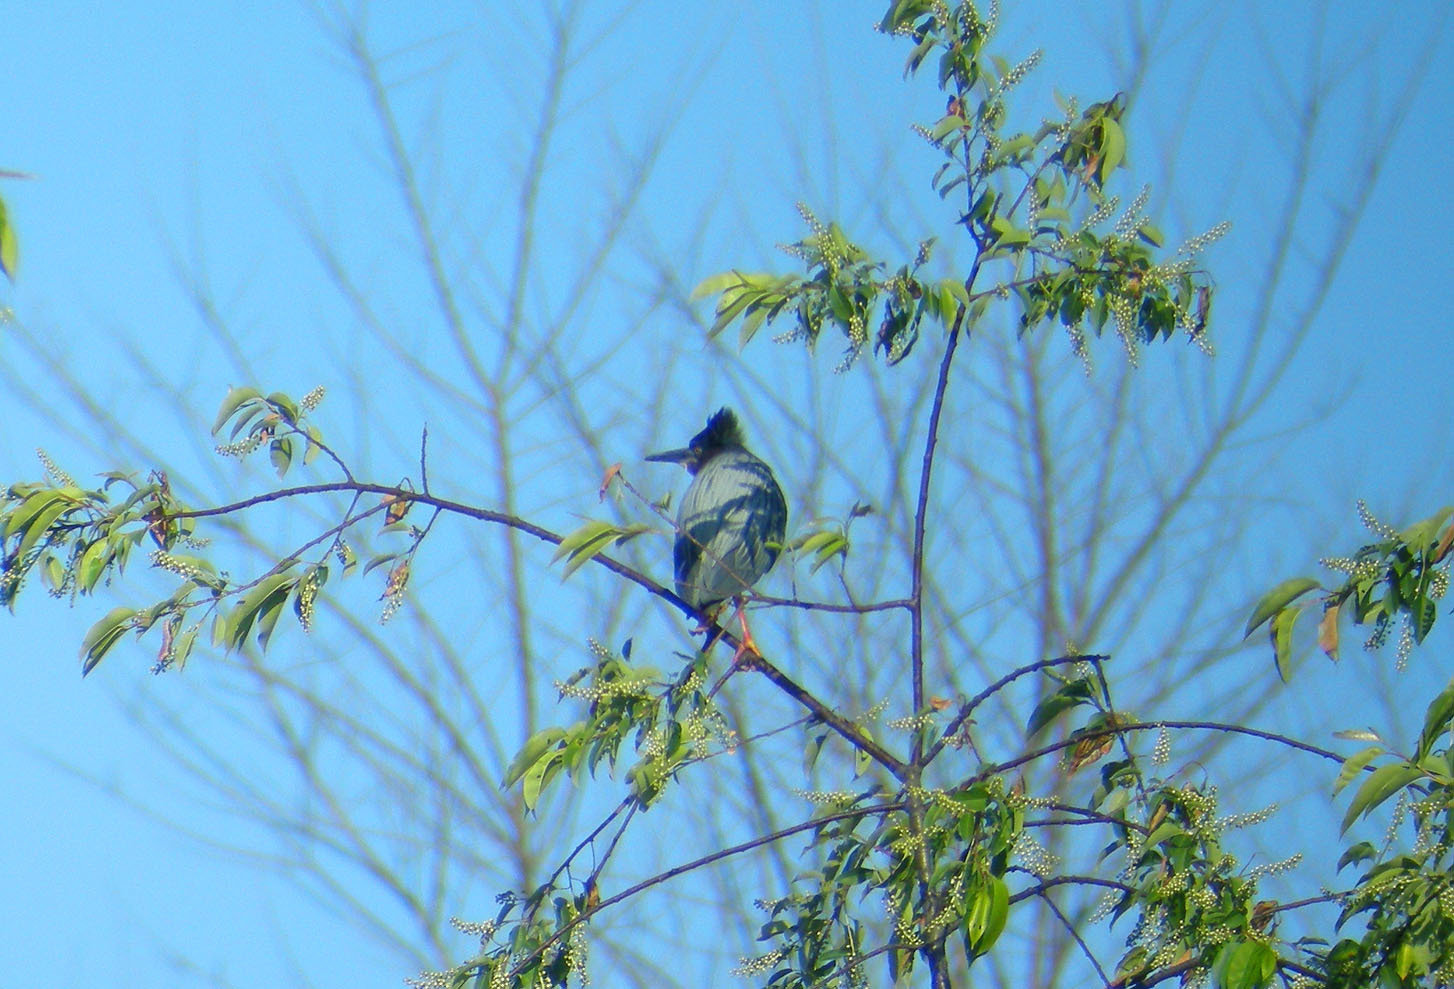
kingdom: Animalia
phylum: Chordata
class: Aves
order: Pelecaniformes
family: Ardeidae
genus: Butorides
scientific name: Butorides virescens
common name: Green heron
